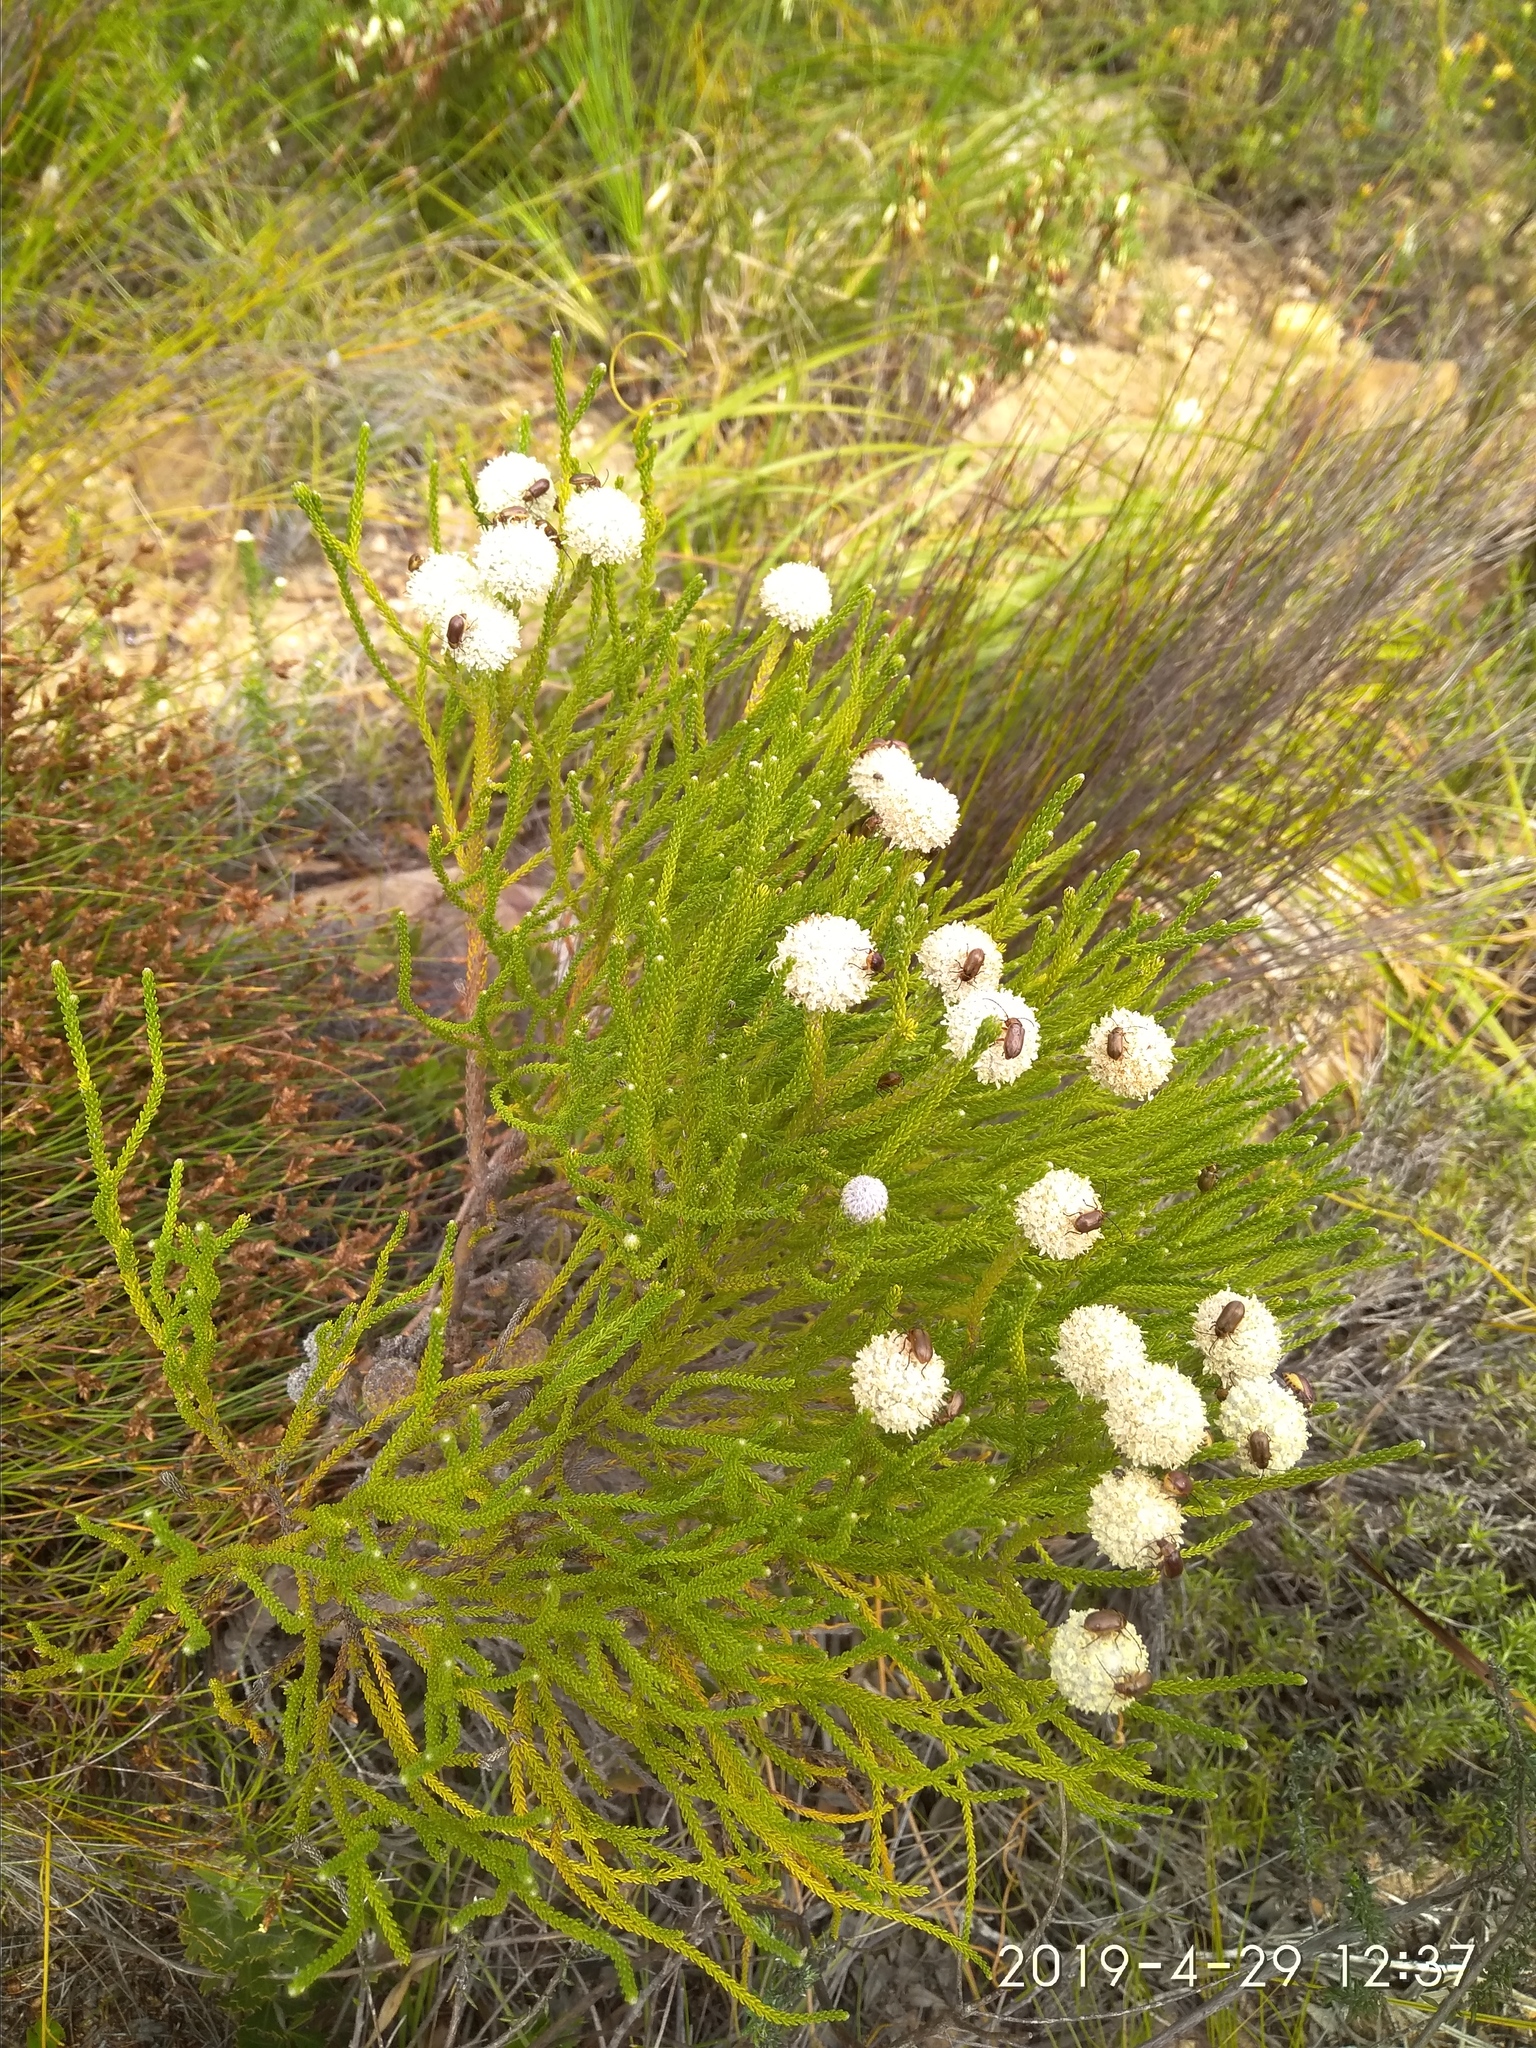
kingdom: Plantae
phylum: Tracheophyta
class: Magnoliopsida
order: Bruniales
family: Bruniaceae
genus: Brunia
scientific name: Brunia noduliflora
